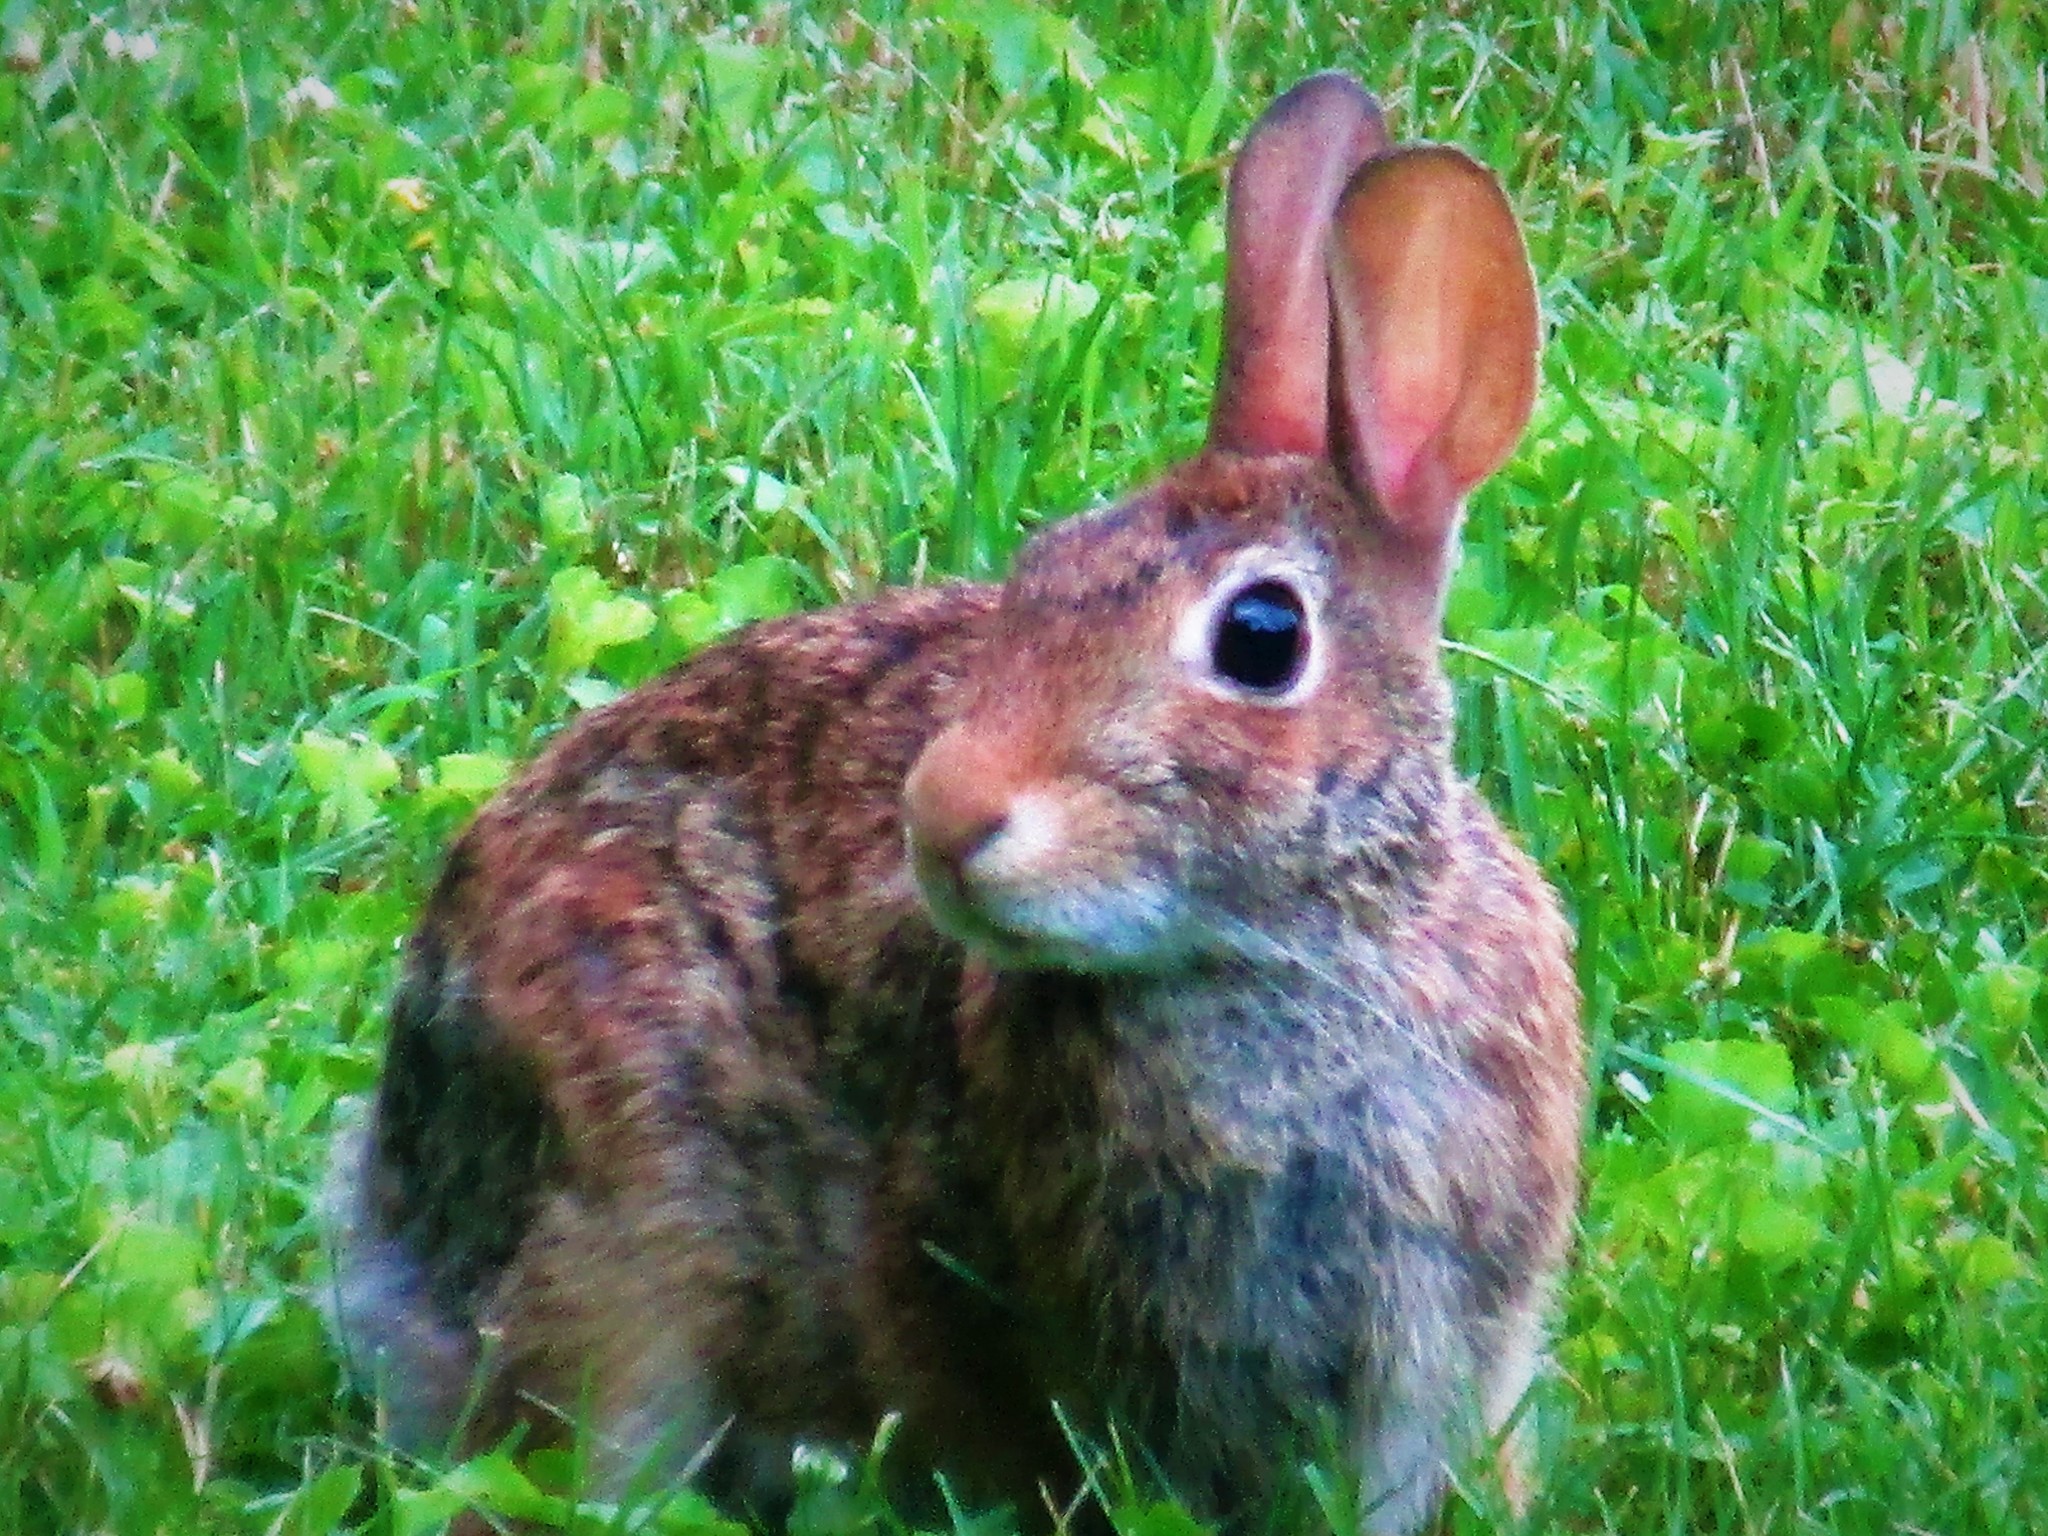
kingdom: Animalia
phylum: Chordata
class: Mammalia
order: Lagomorpha
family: Leporidae
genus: Sylvilagus
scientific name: Sylvilagus floridanus
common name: Eastern cottontail
